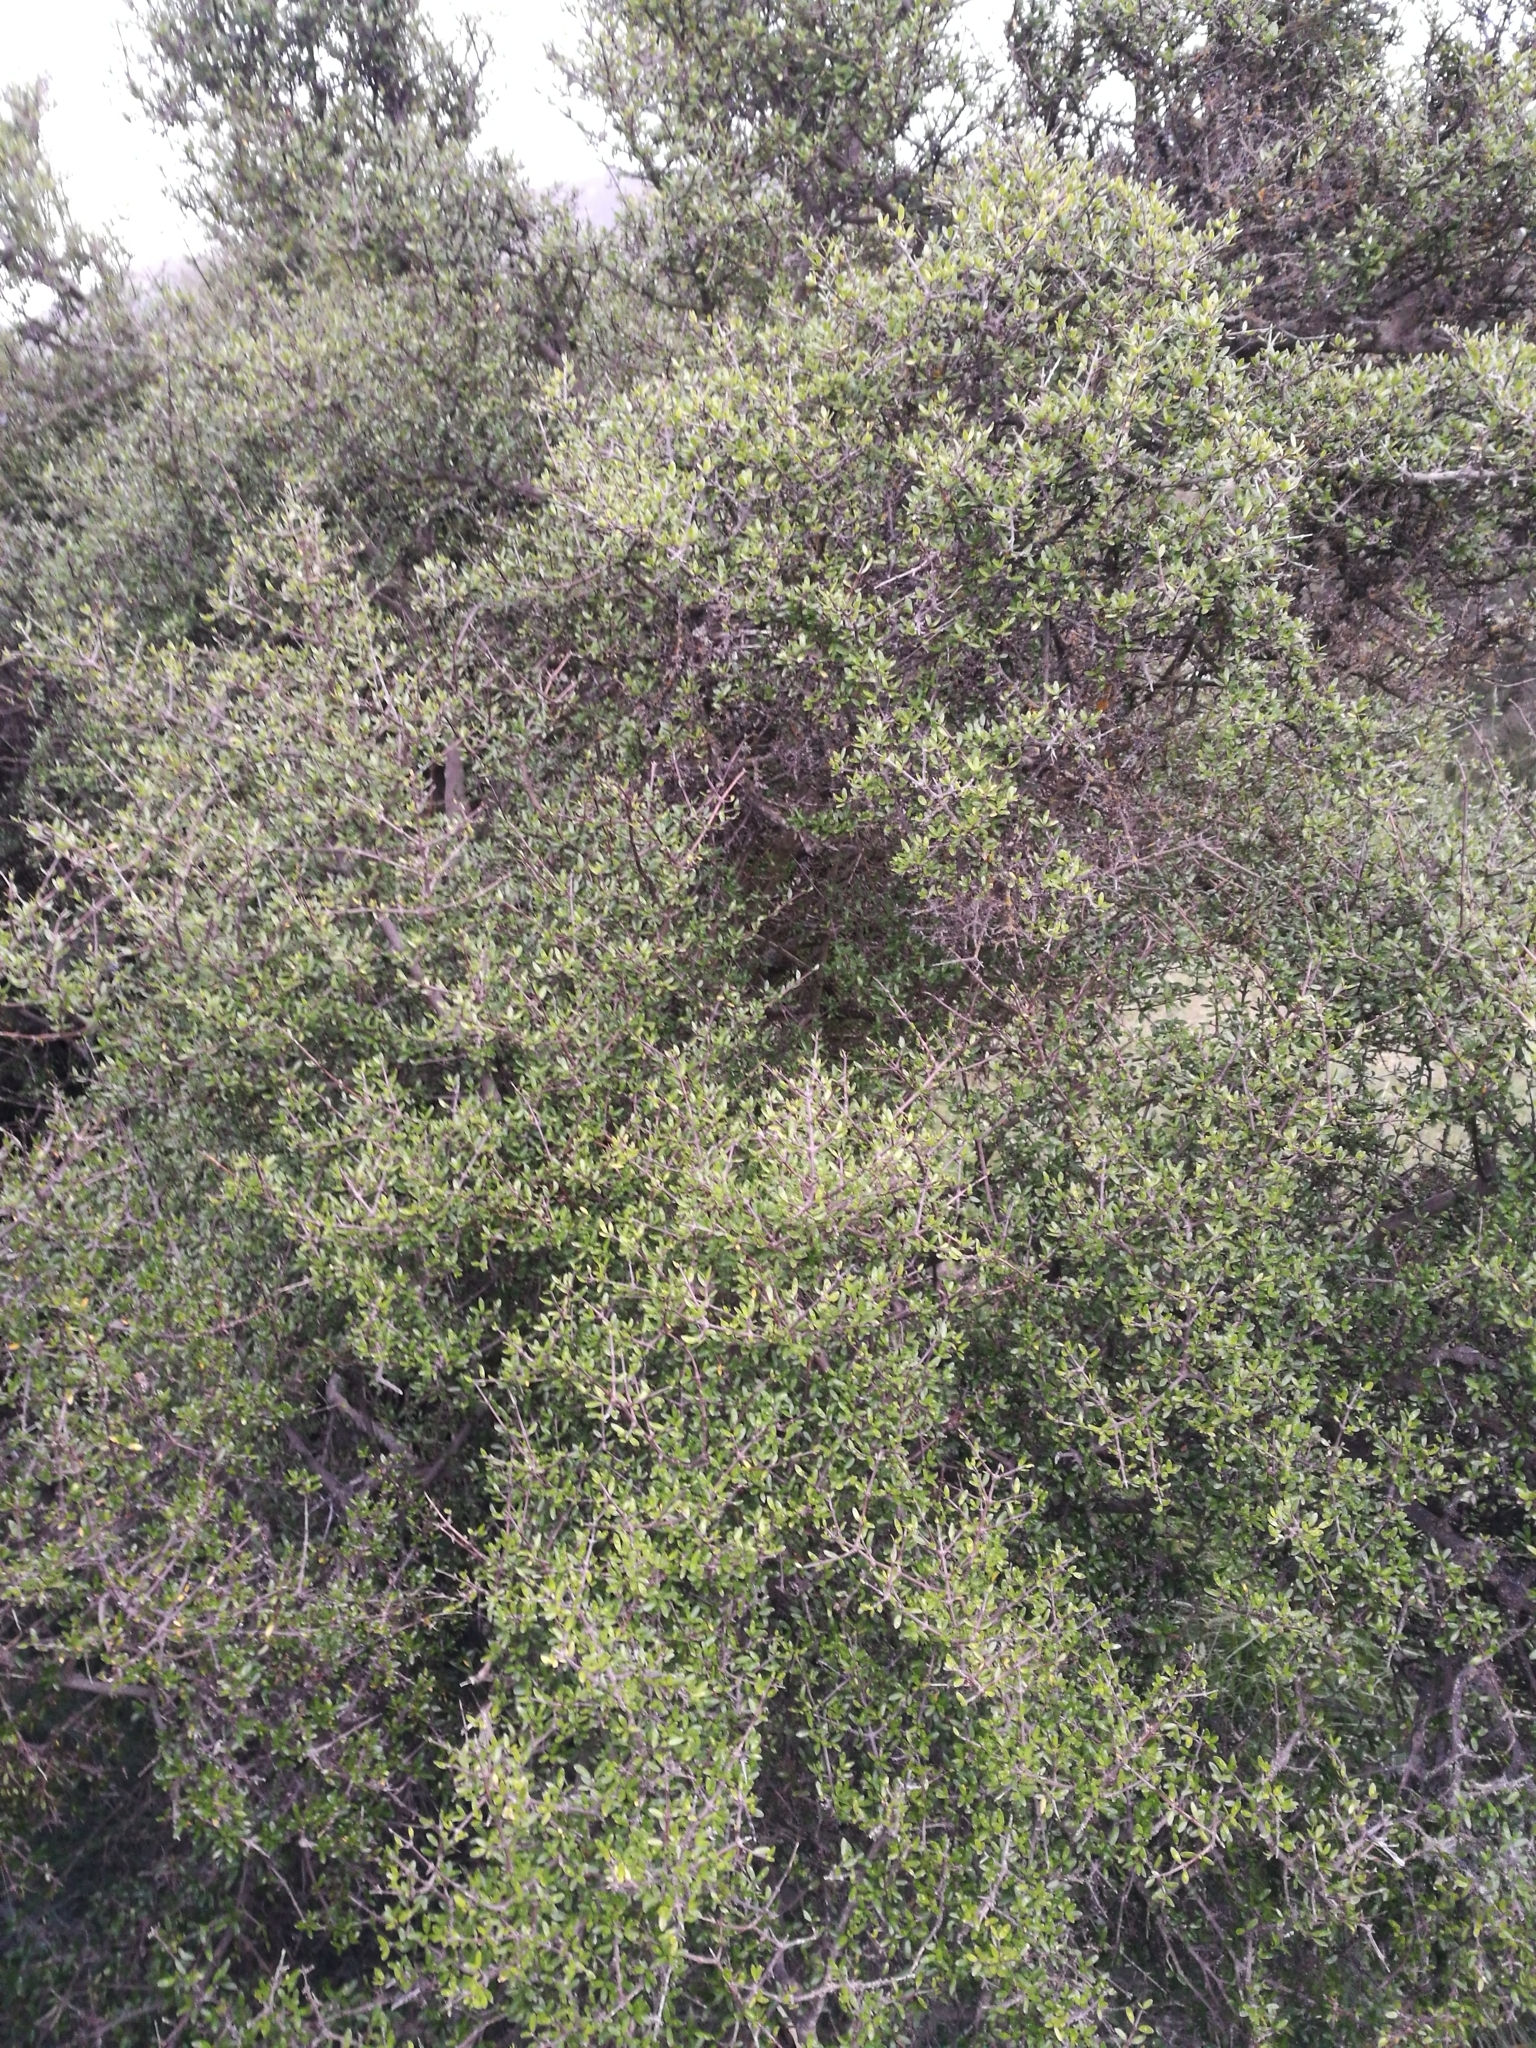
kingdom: Plantae
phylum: Tracheophyta
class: Magnoliopsida
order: Gentianales
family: Rubiaceae
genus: Coprosma
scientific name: Coprosma propinqua
